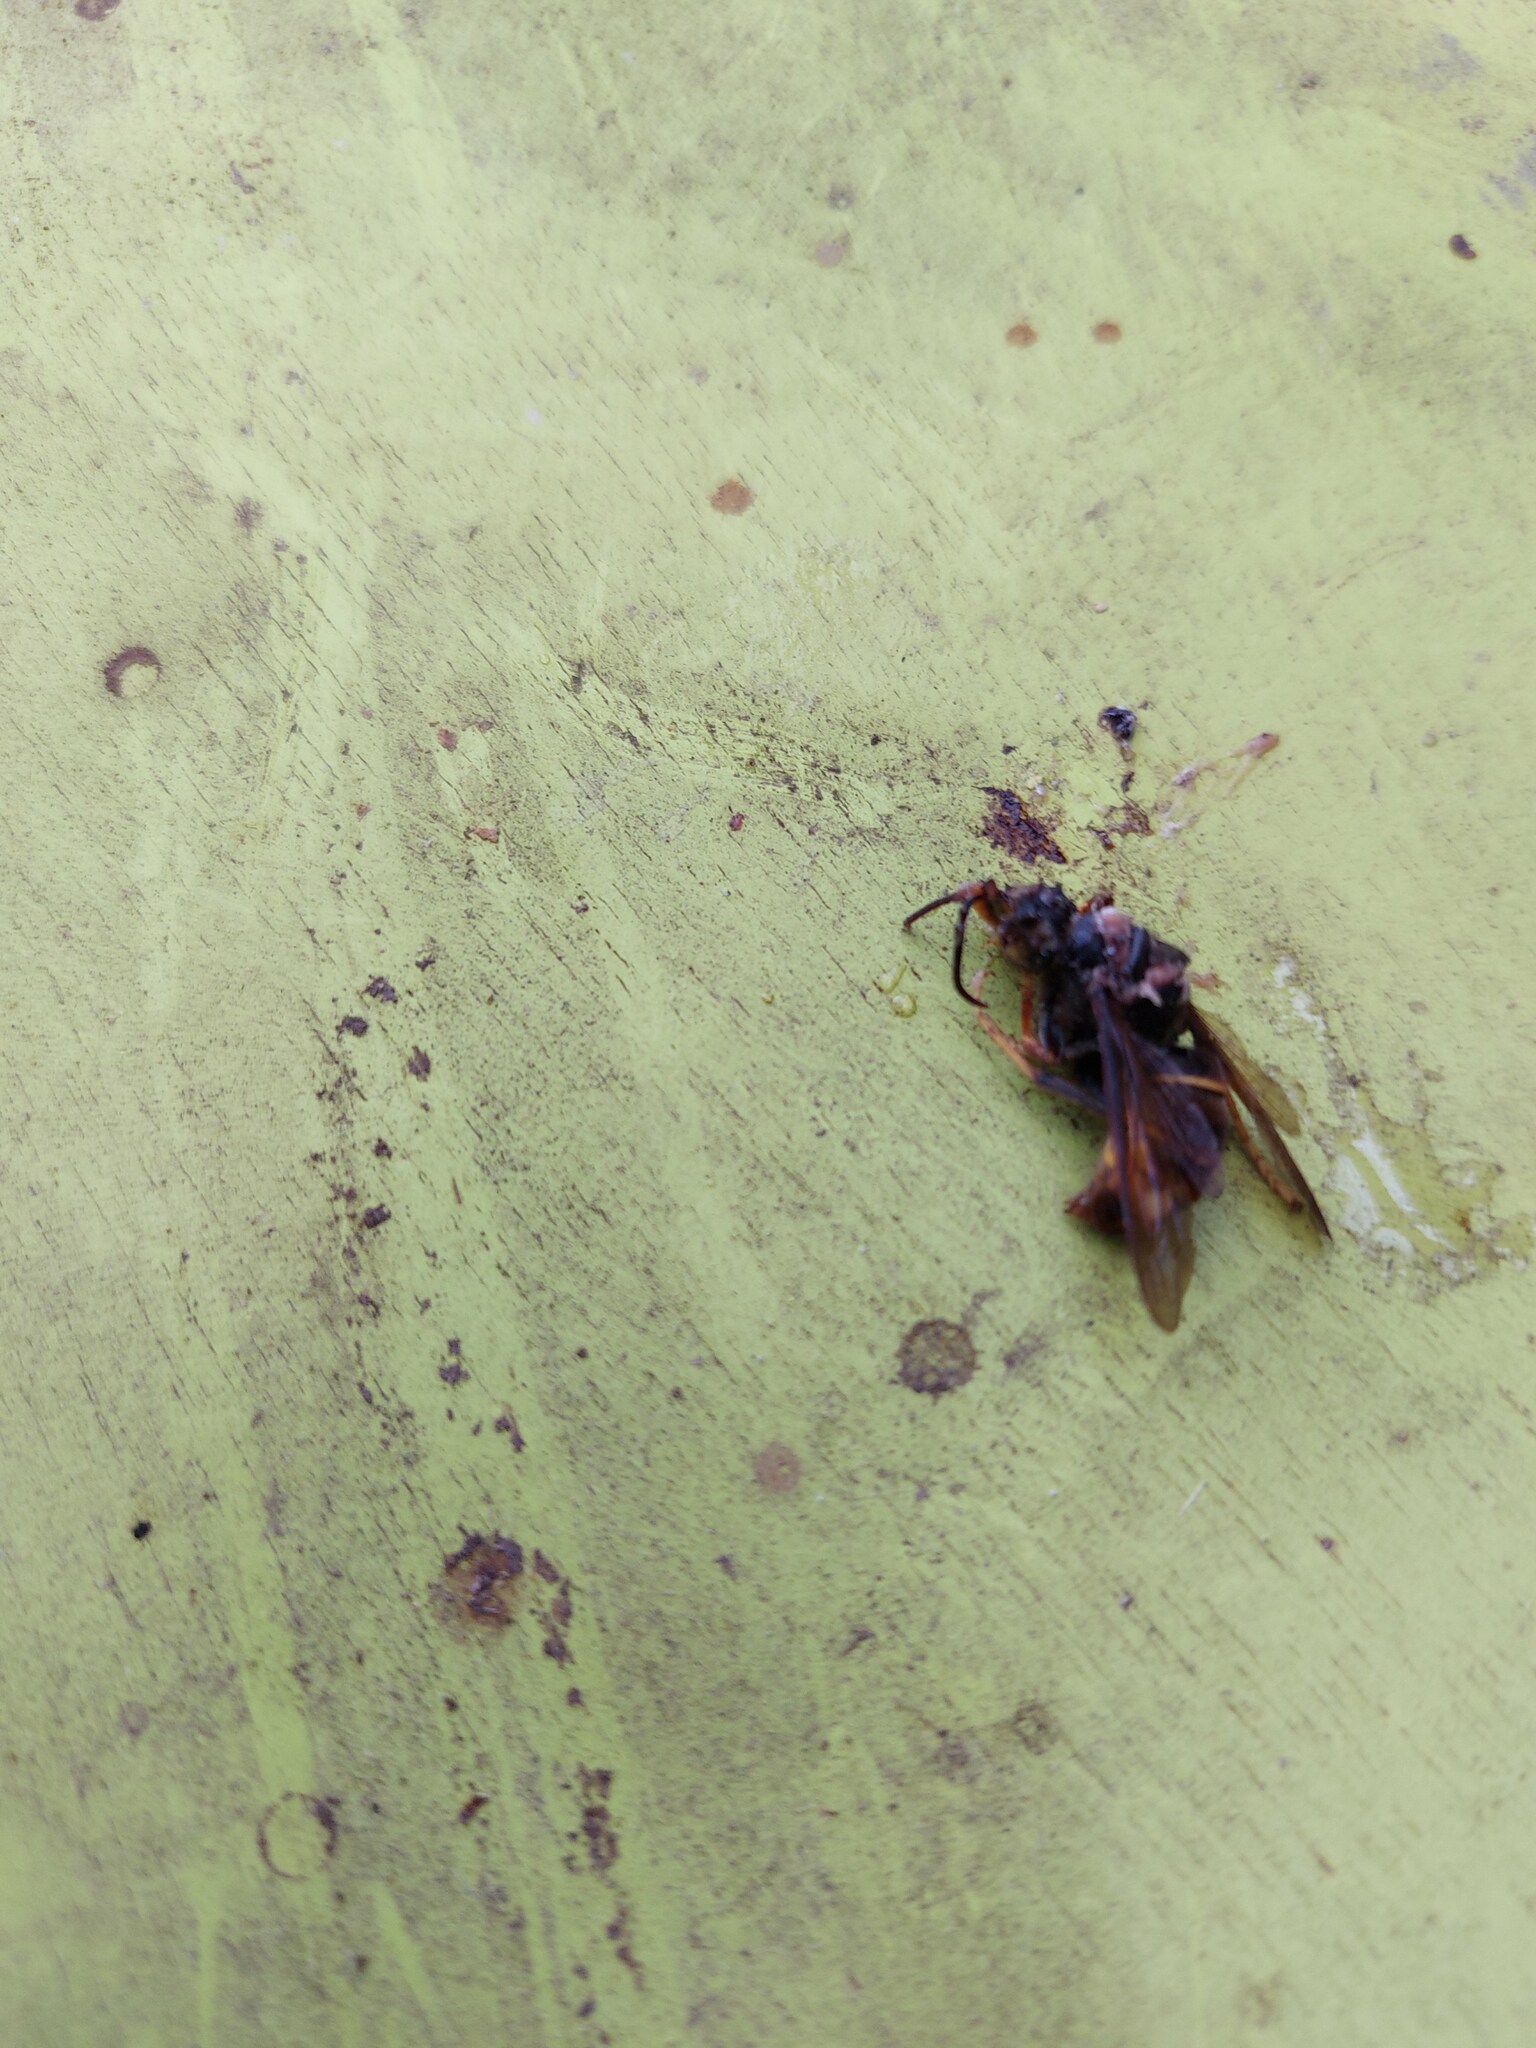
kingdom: Animalia
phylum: Arthropoda
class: Insecta
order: Hymenoptera
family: Vespidae
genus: Vespa
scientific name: Vespa velutina
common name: Asian hornet
